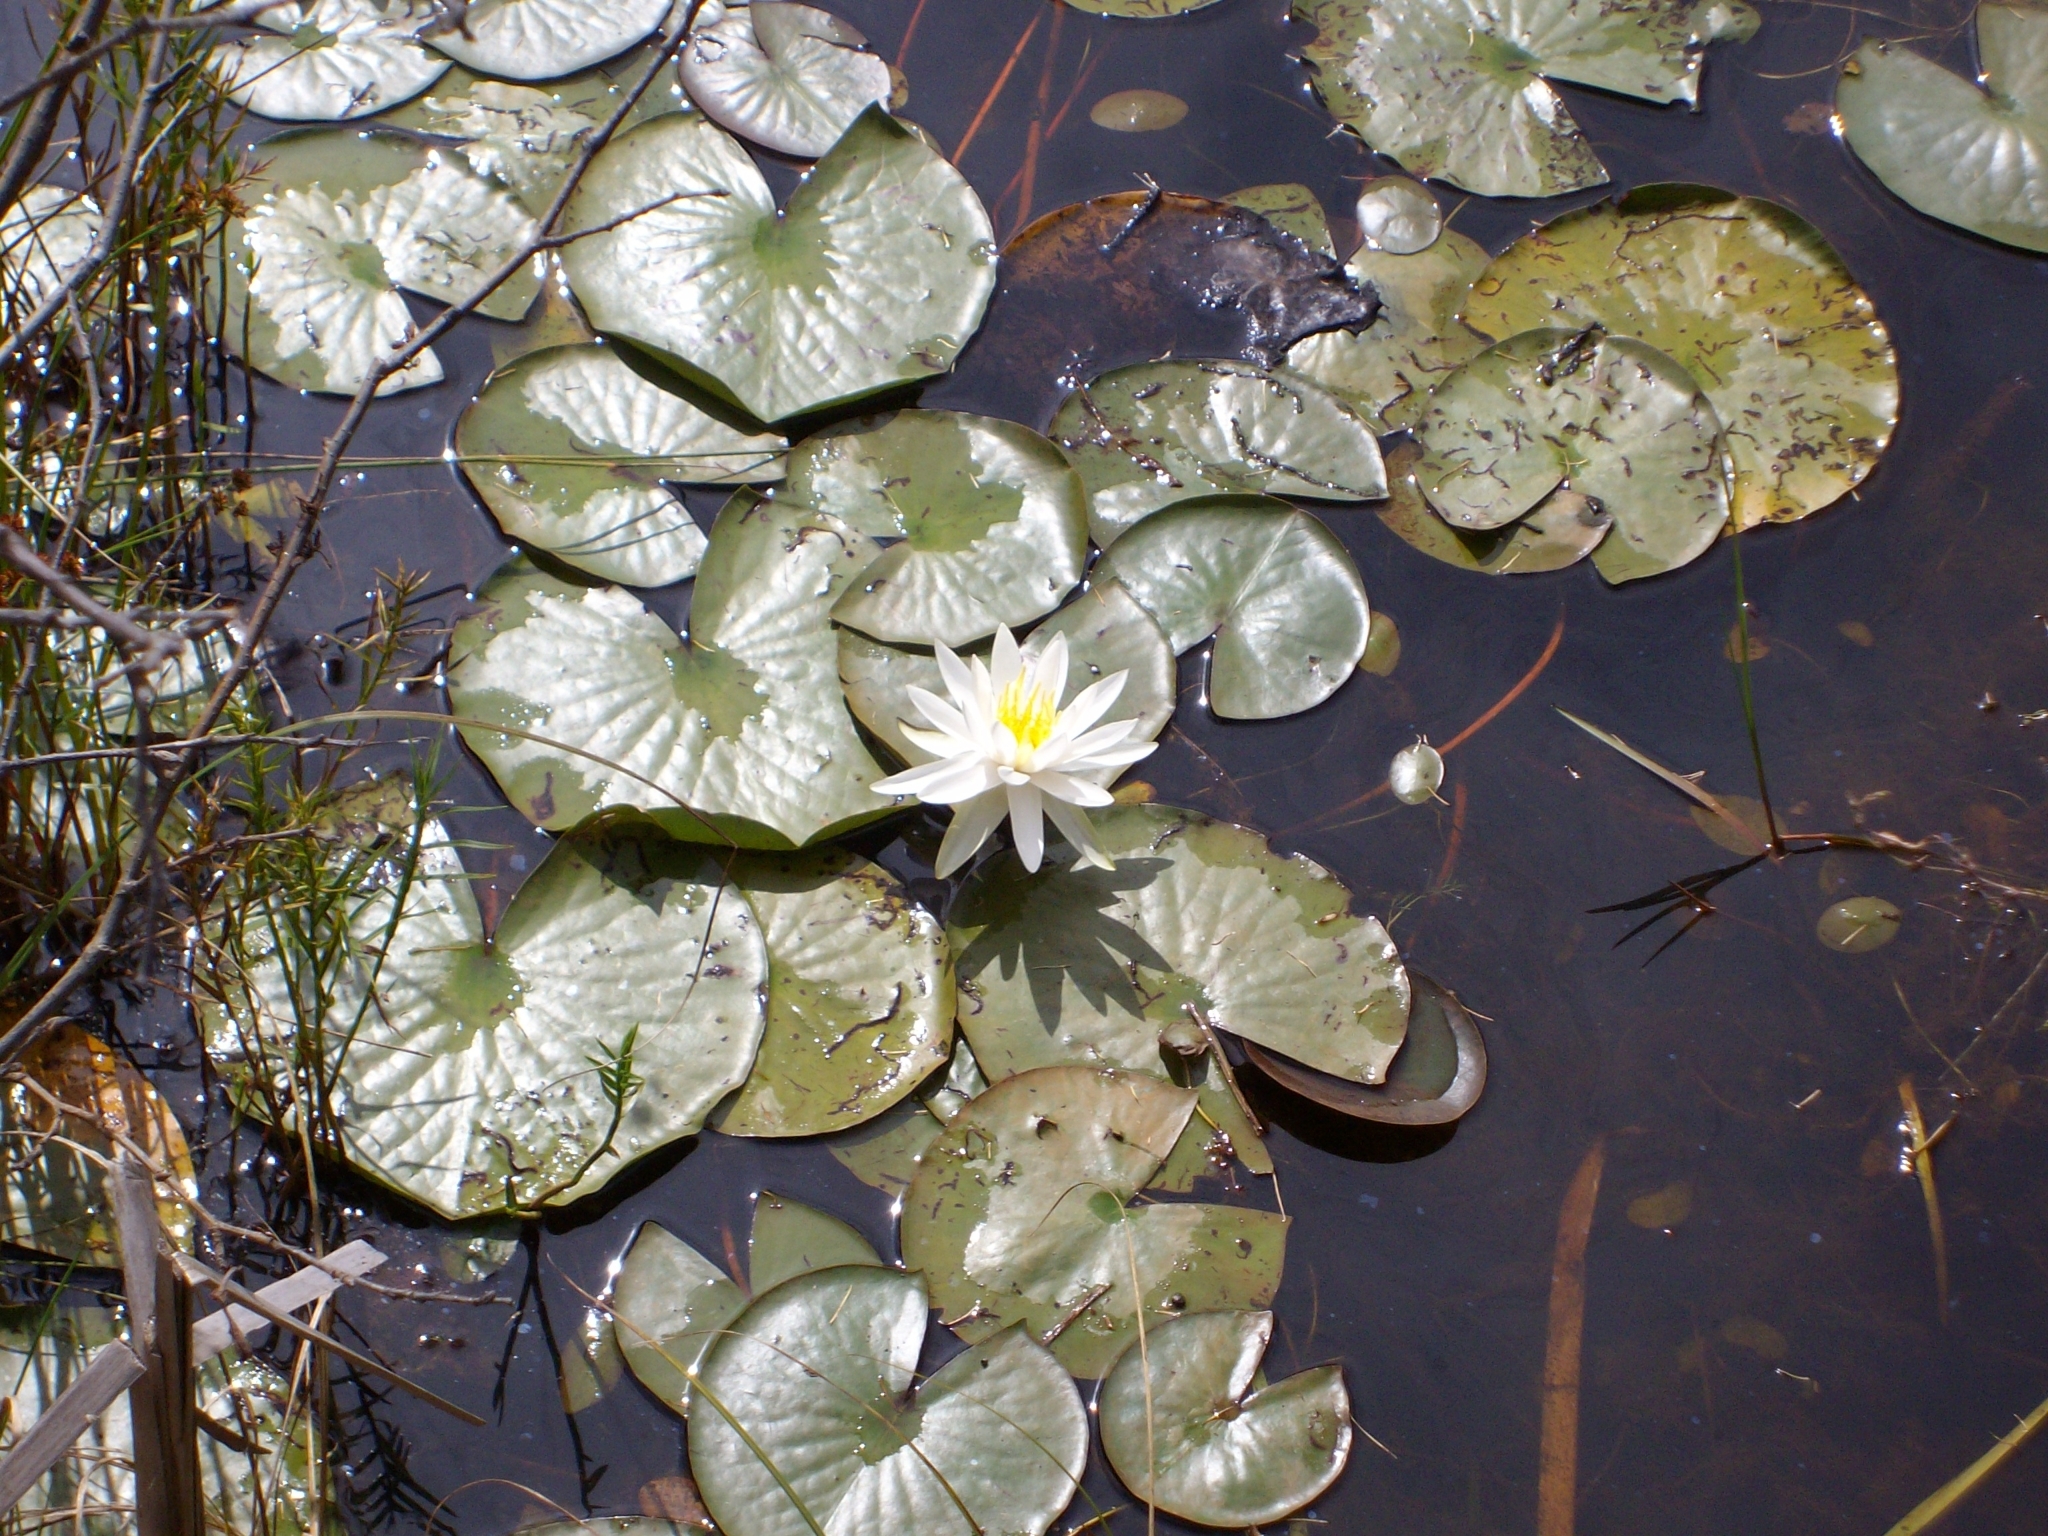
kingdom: Plantae
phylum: Tracheophyta
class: Magnoliopsida
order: Nymphaeales
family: Nymphaeaceae
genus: Nymphaea
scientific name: Nymphaea odorata
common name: Fragrant water-lily
